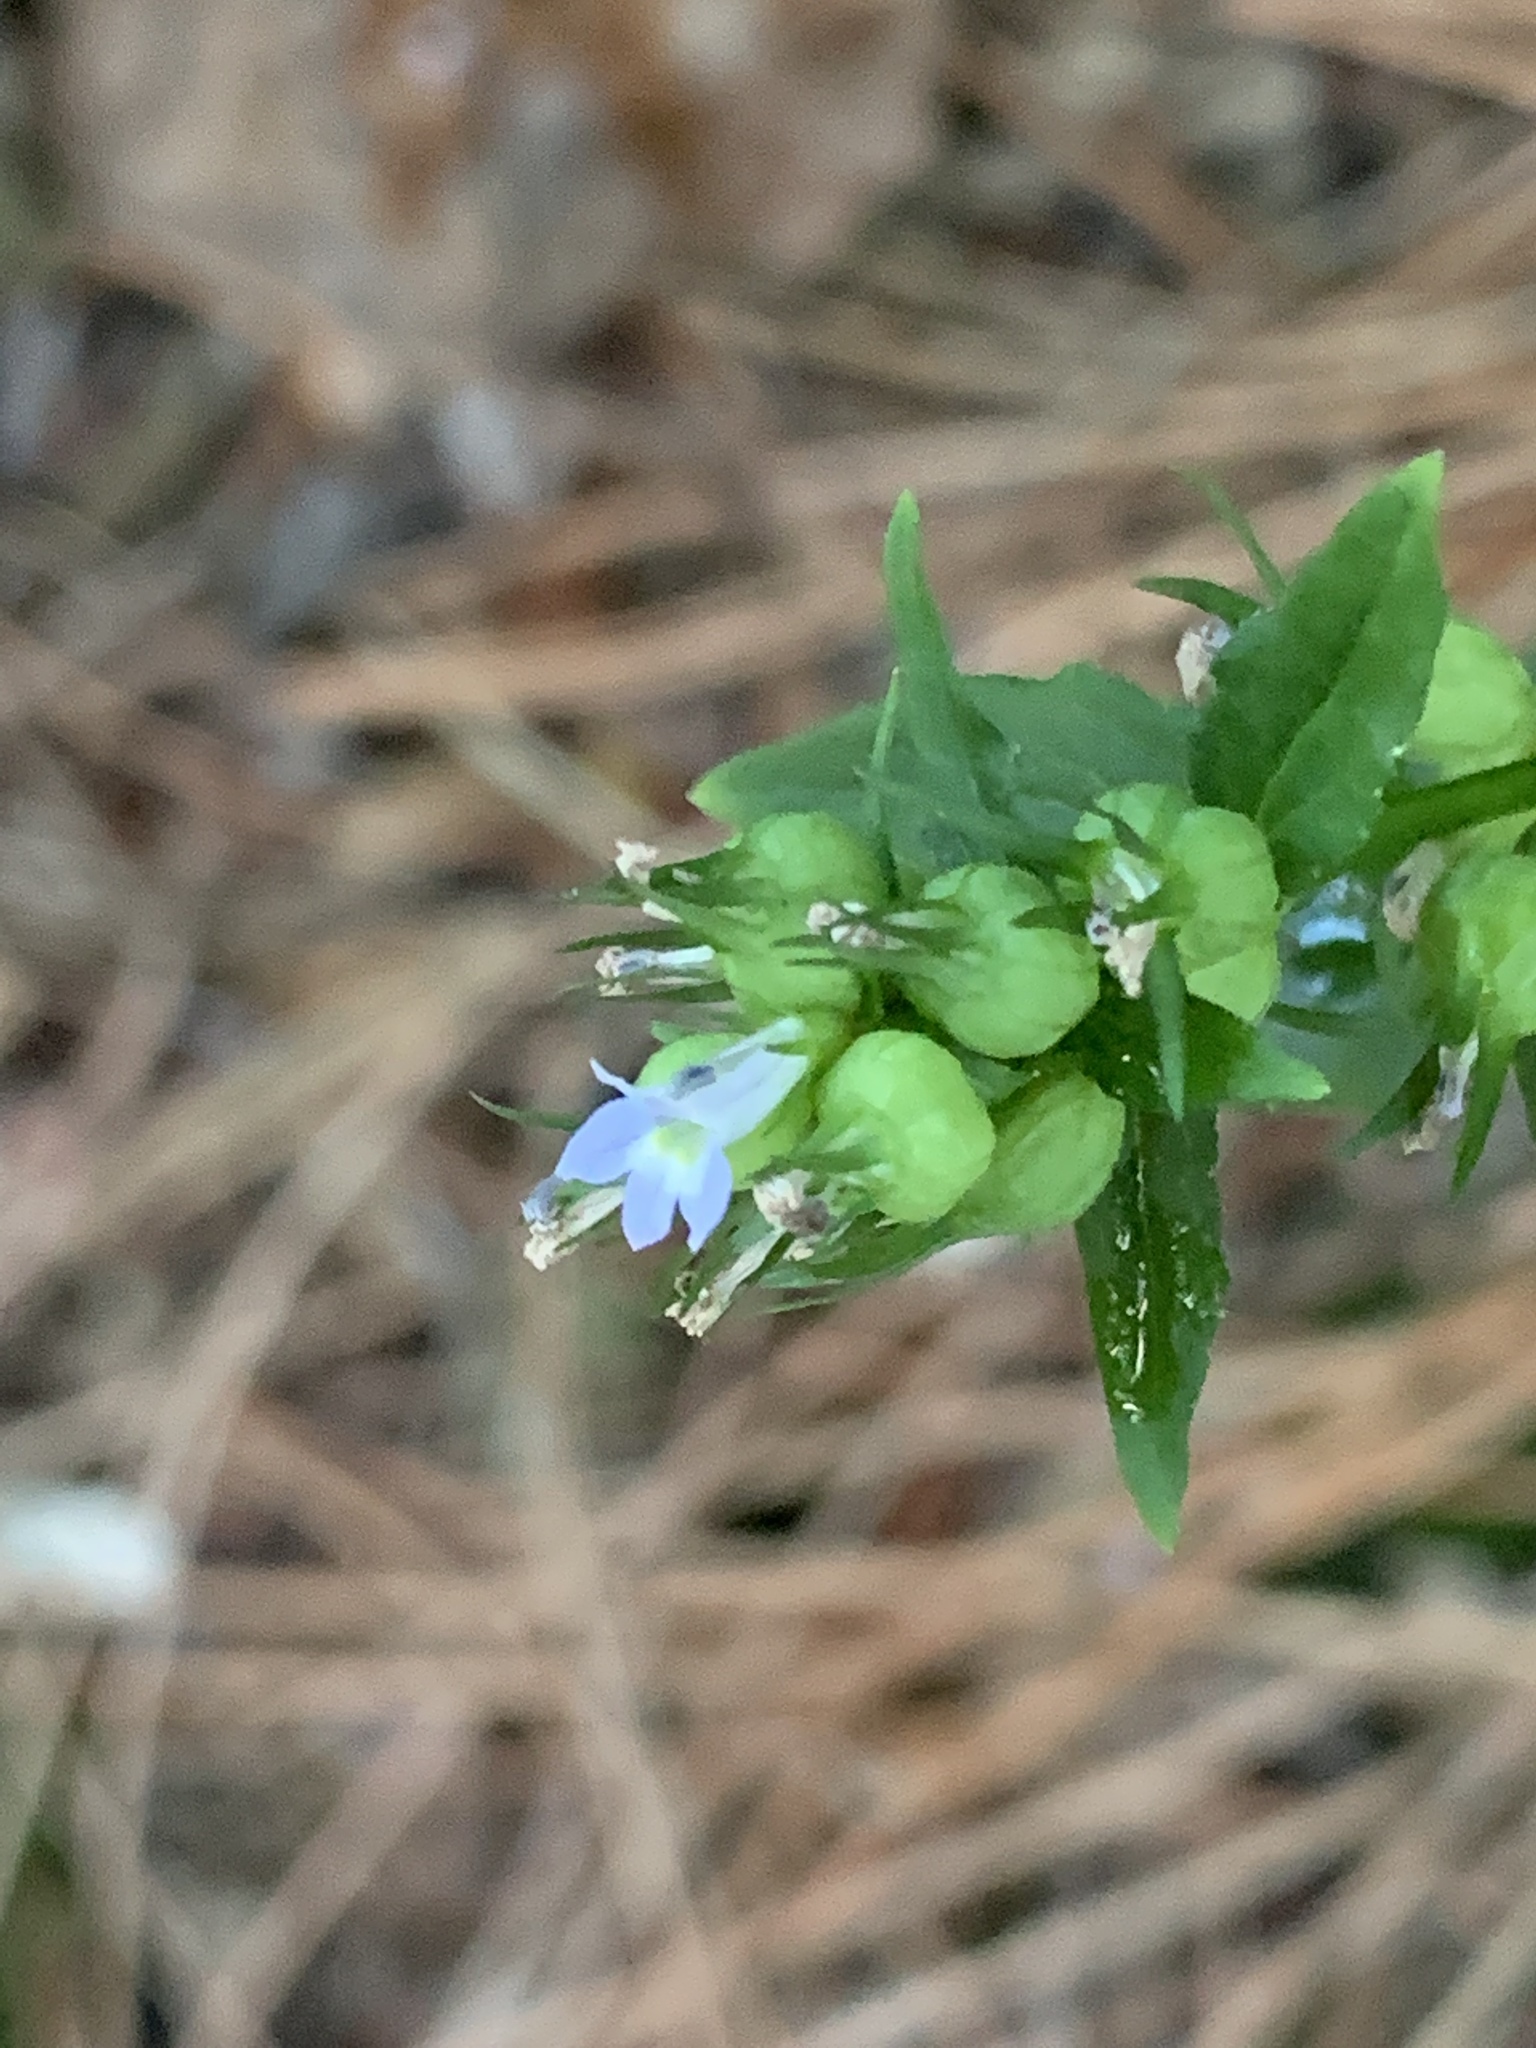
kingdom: Plantae
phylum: Tracheophyta
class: Magnoliopsida
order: Asterales
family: Campanulaceae
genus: Lobelia
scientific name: Lobelia inflata
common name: Indian tobacco
